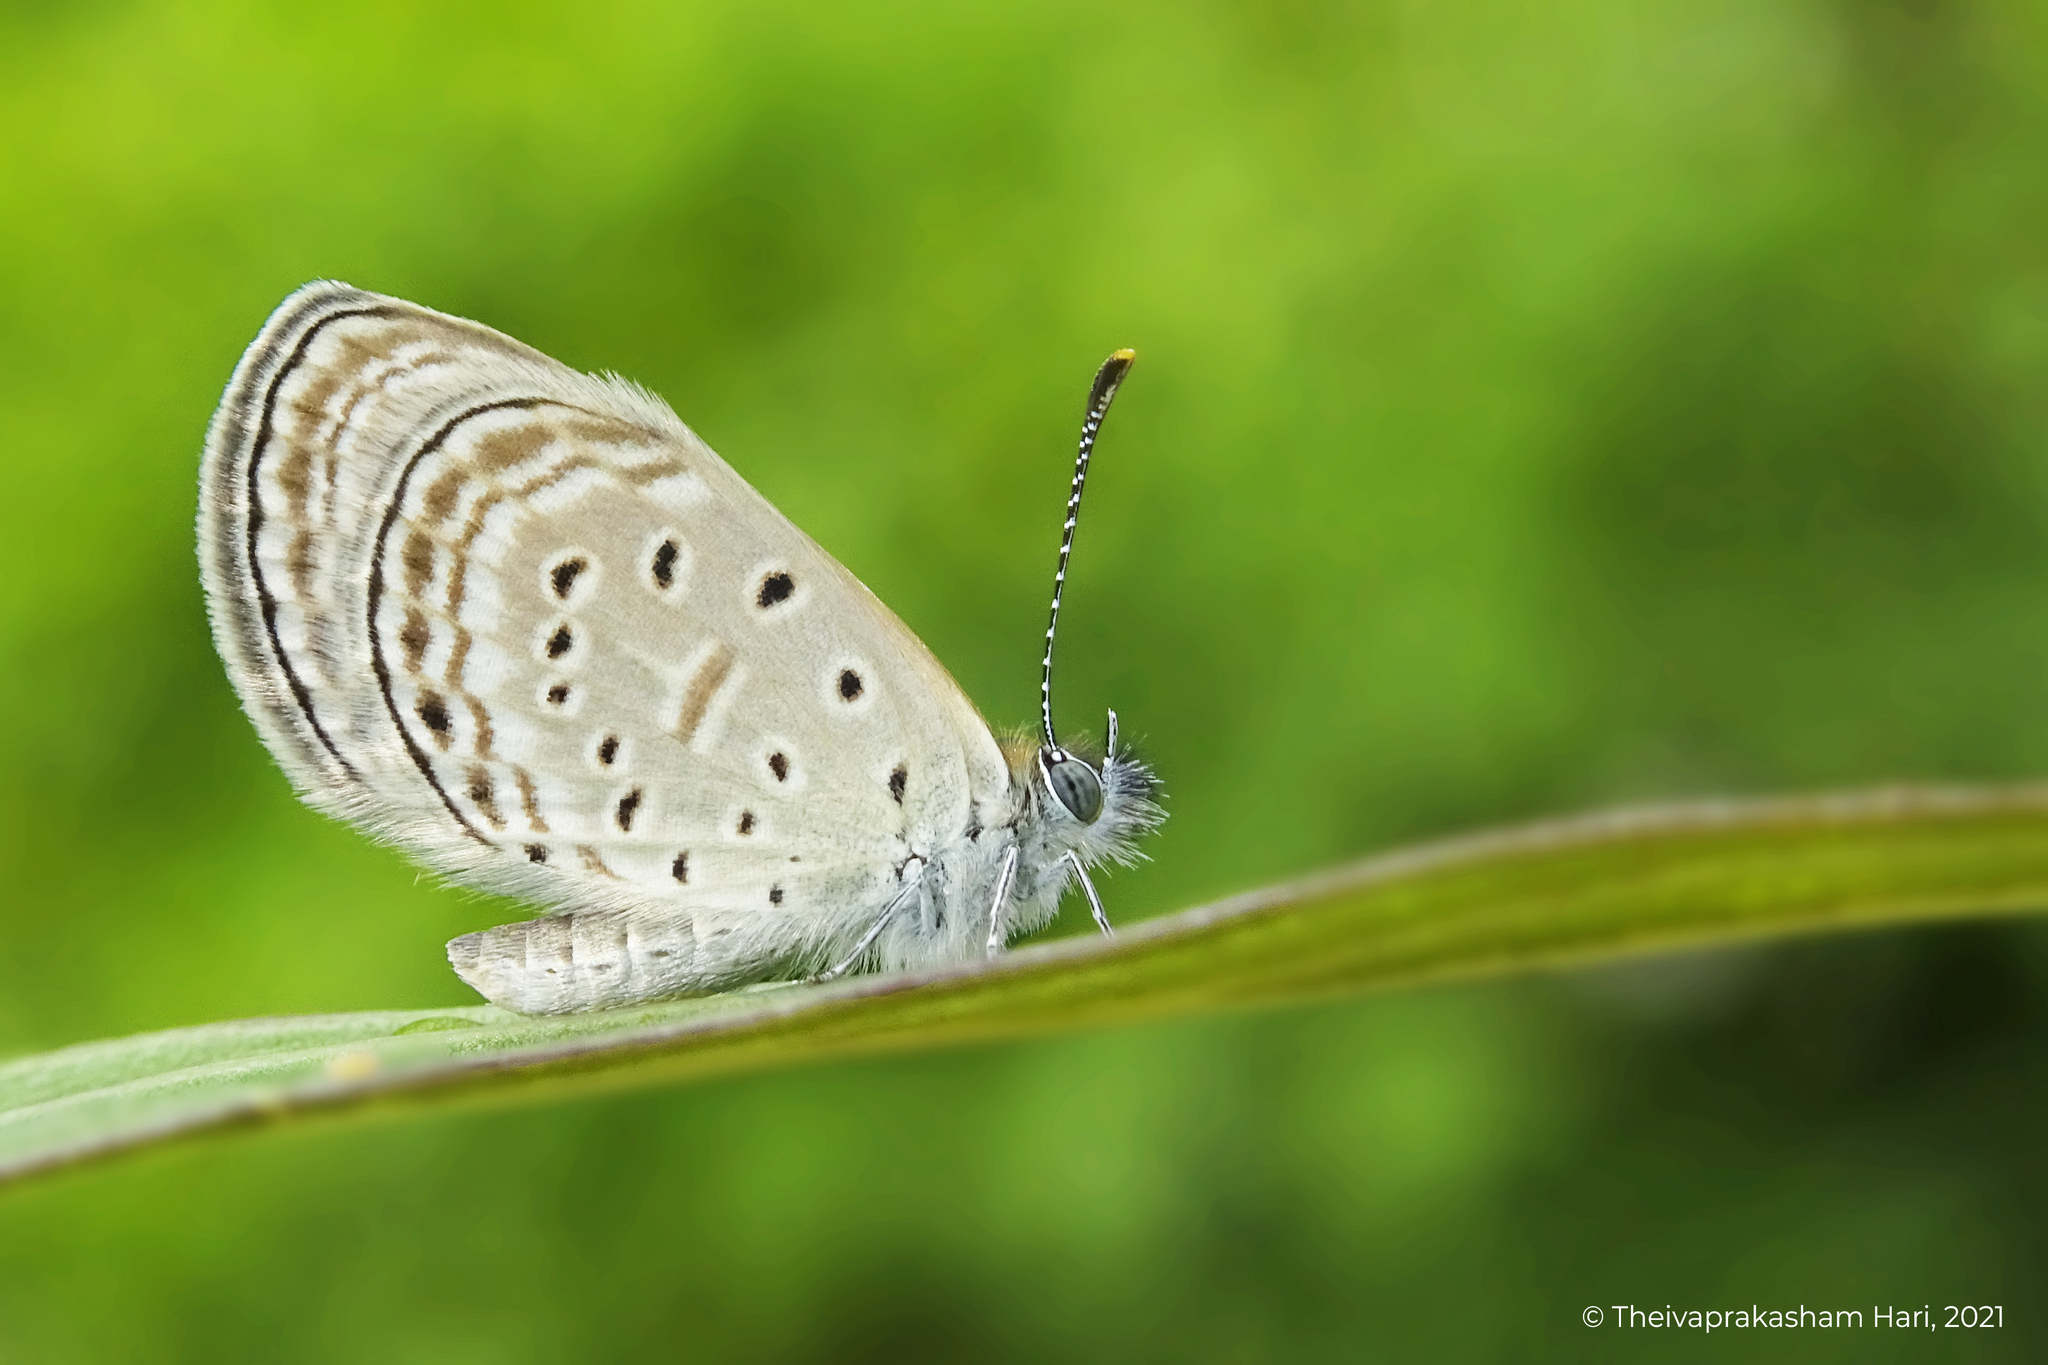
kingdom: Animalia
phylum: Arthropoda
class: Insecta
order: Lepidoptera
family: Lycaenidae
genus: Zizula
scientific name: Zizula hylax
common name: Gaika blue
